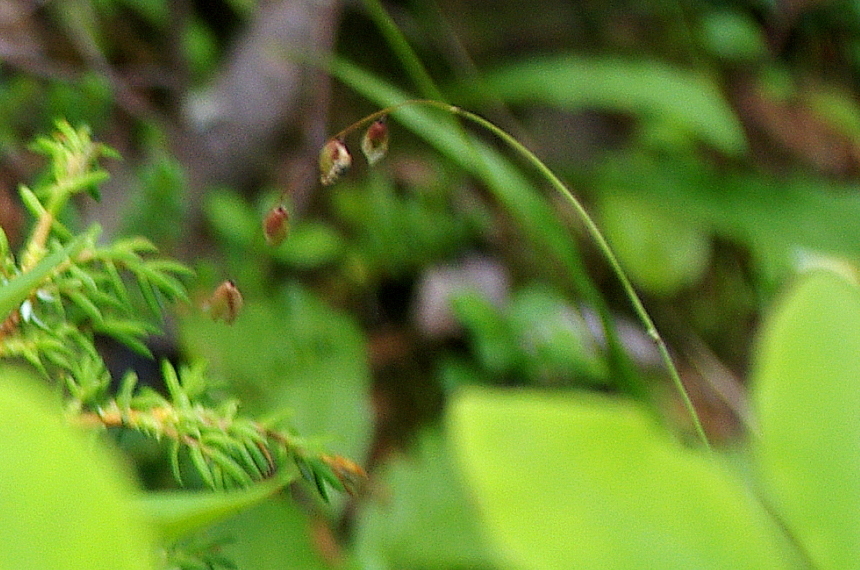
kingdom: Plantae
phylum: Tracheophyta
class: Liliopsida
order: Poales
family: Poaceae
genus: Melica
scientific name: Melica nutans
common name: Mountain melick
